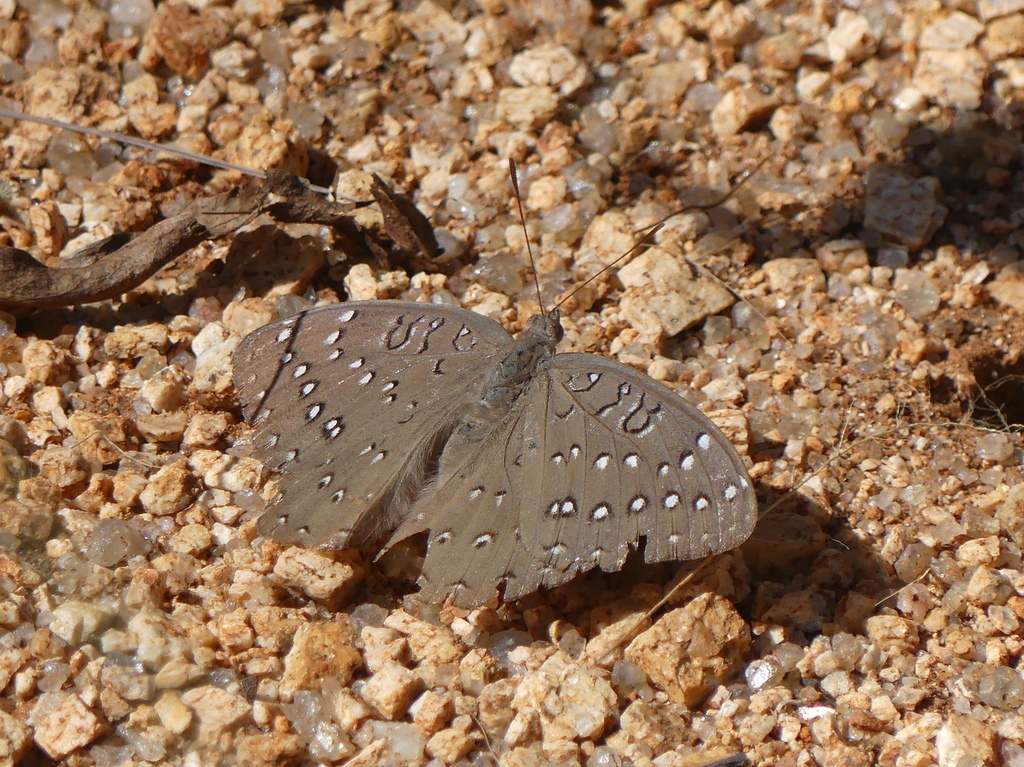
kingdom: Animalia
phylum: Arthropoda
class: Insecta
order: Lepidoptera
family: Nymphalidae
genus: Hamanumida
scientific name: Hamanumida daedalus
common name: Guinea-fowl butterfly
